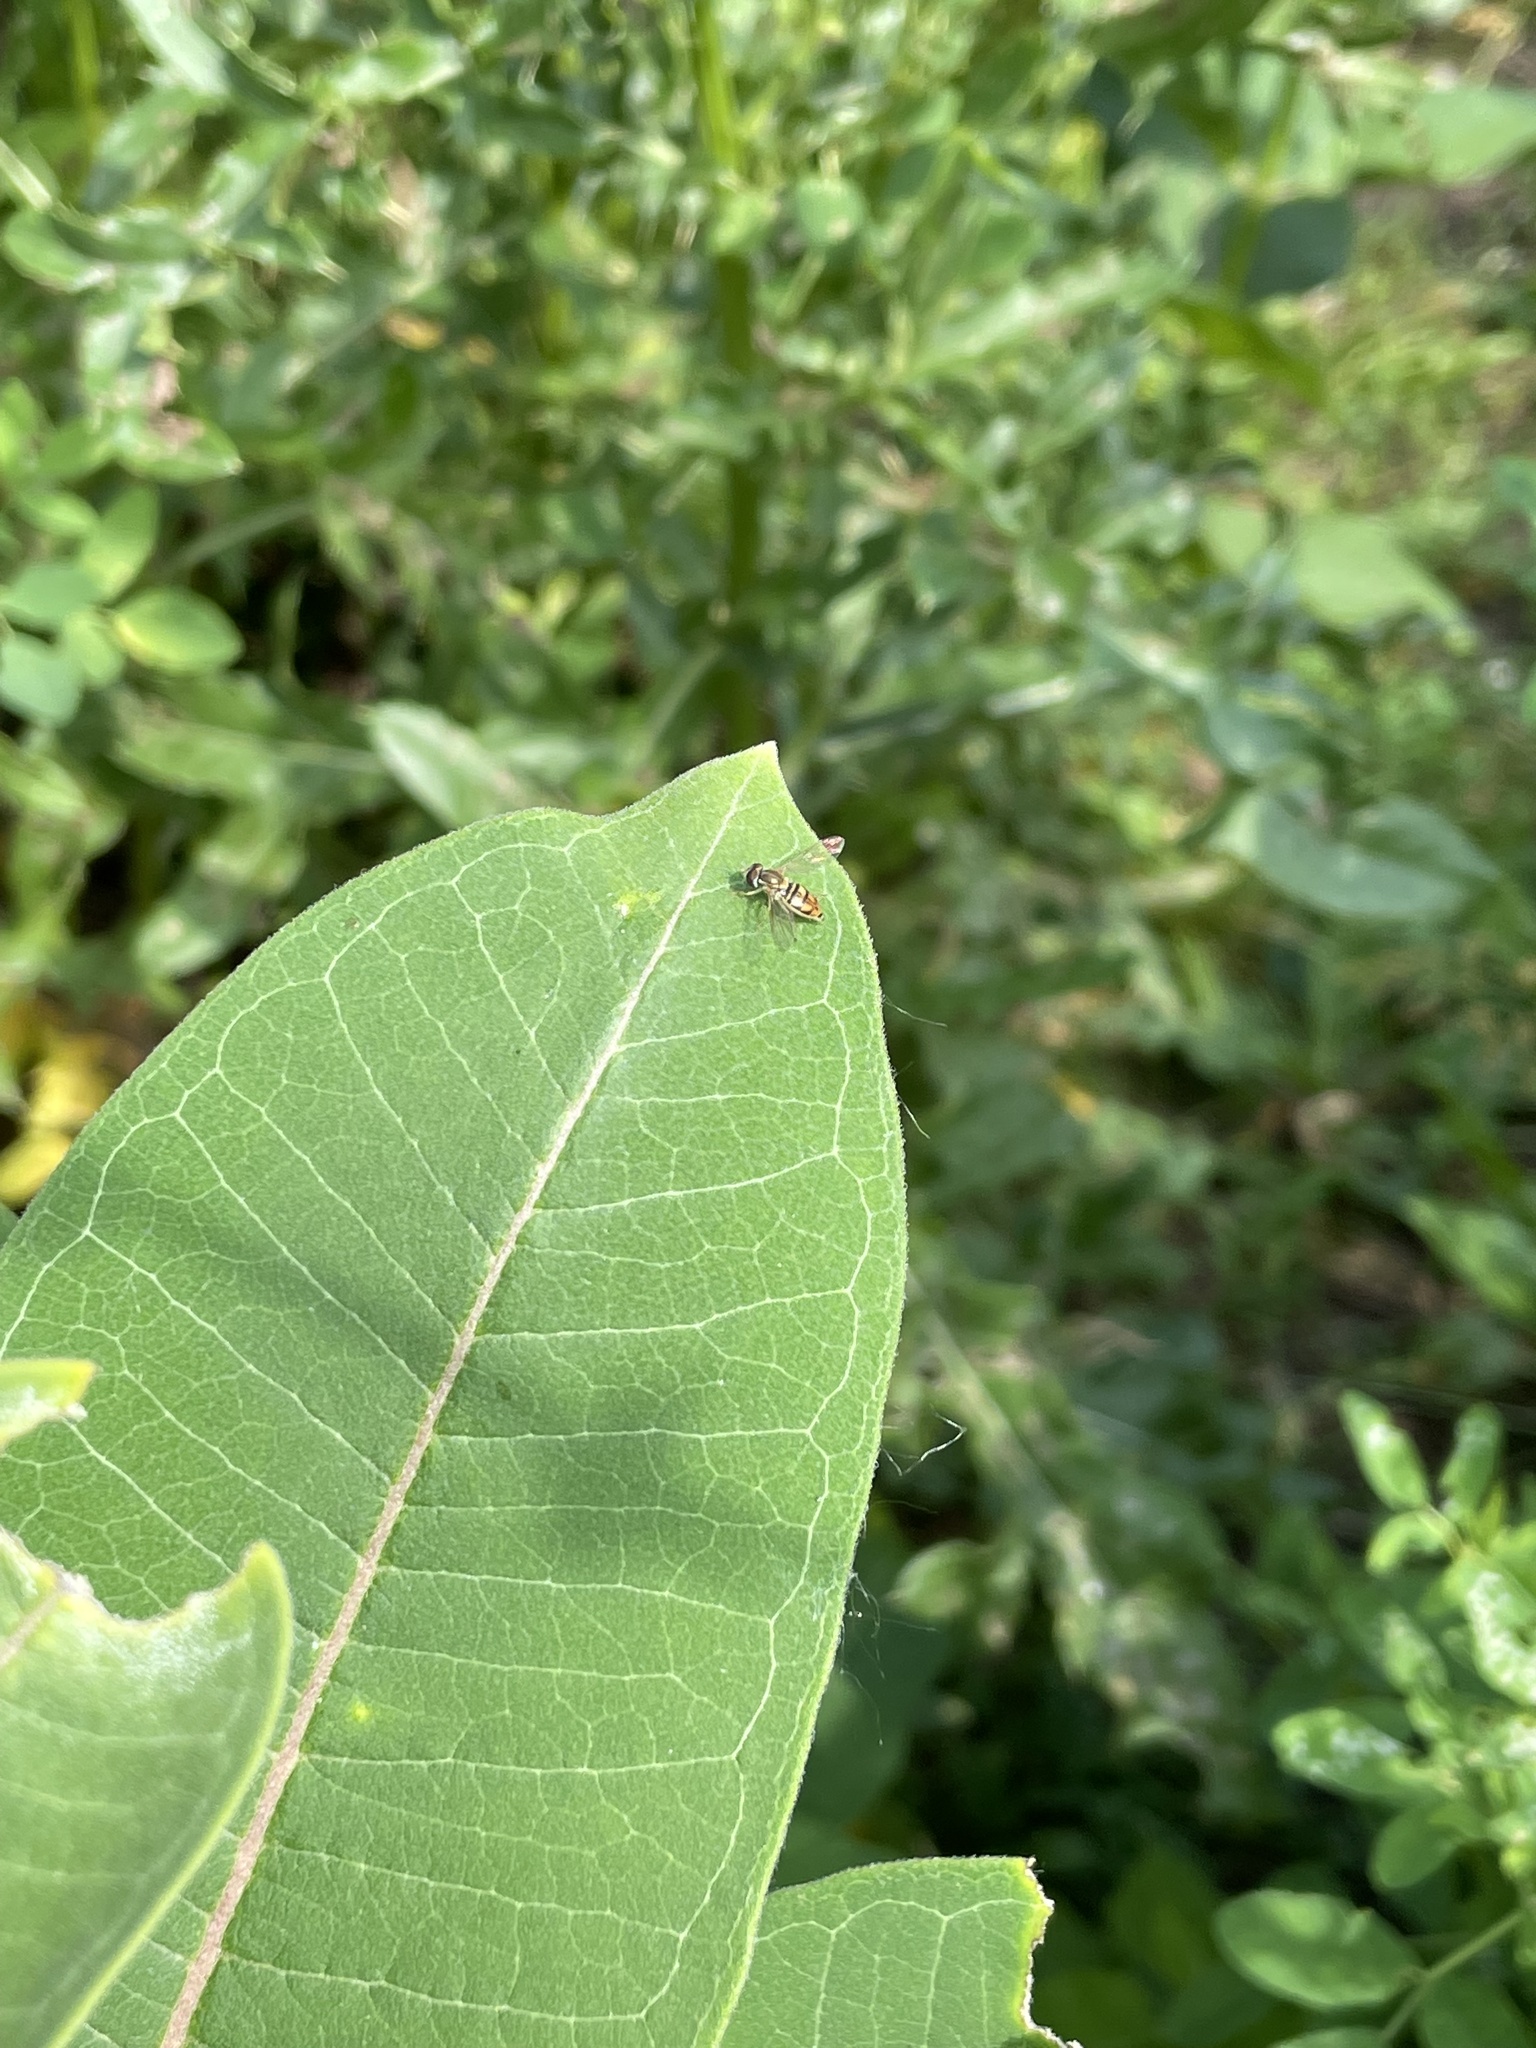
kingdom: Animalia
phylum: Arthropoda
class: Insecta
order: Diptera
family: Syrphidae
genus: Toxomerus
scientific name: Toxomerus marginatus
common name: Syrphid fly
